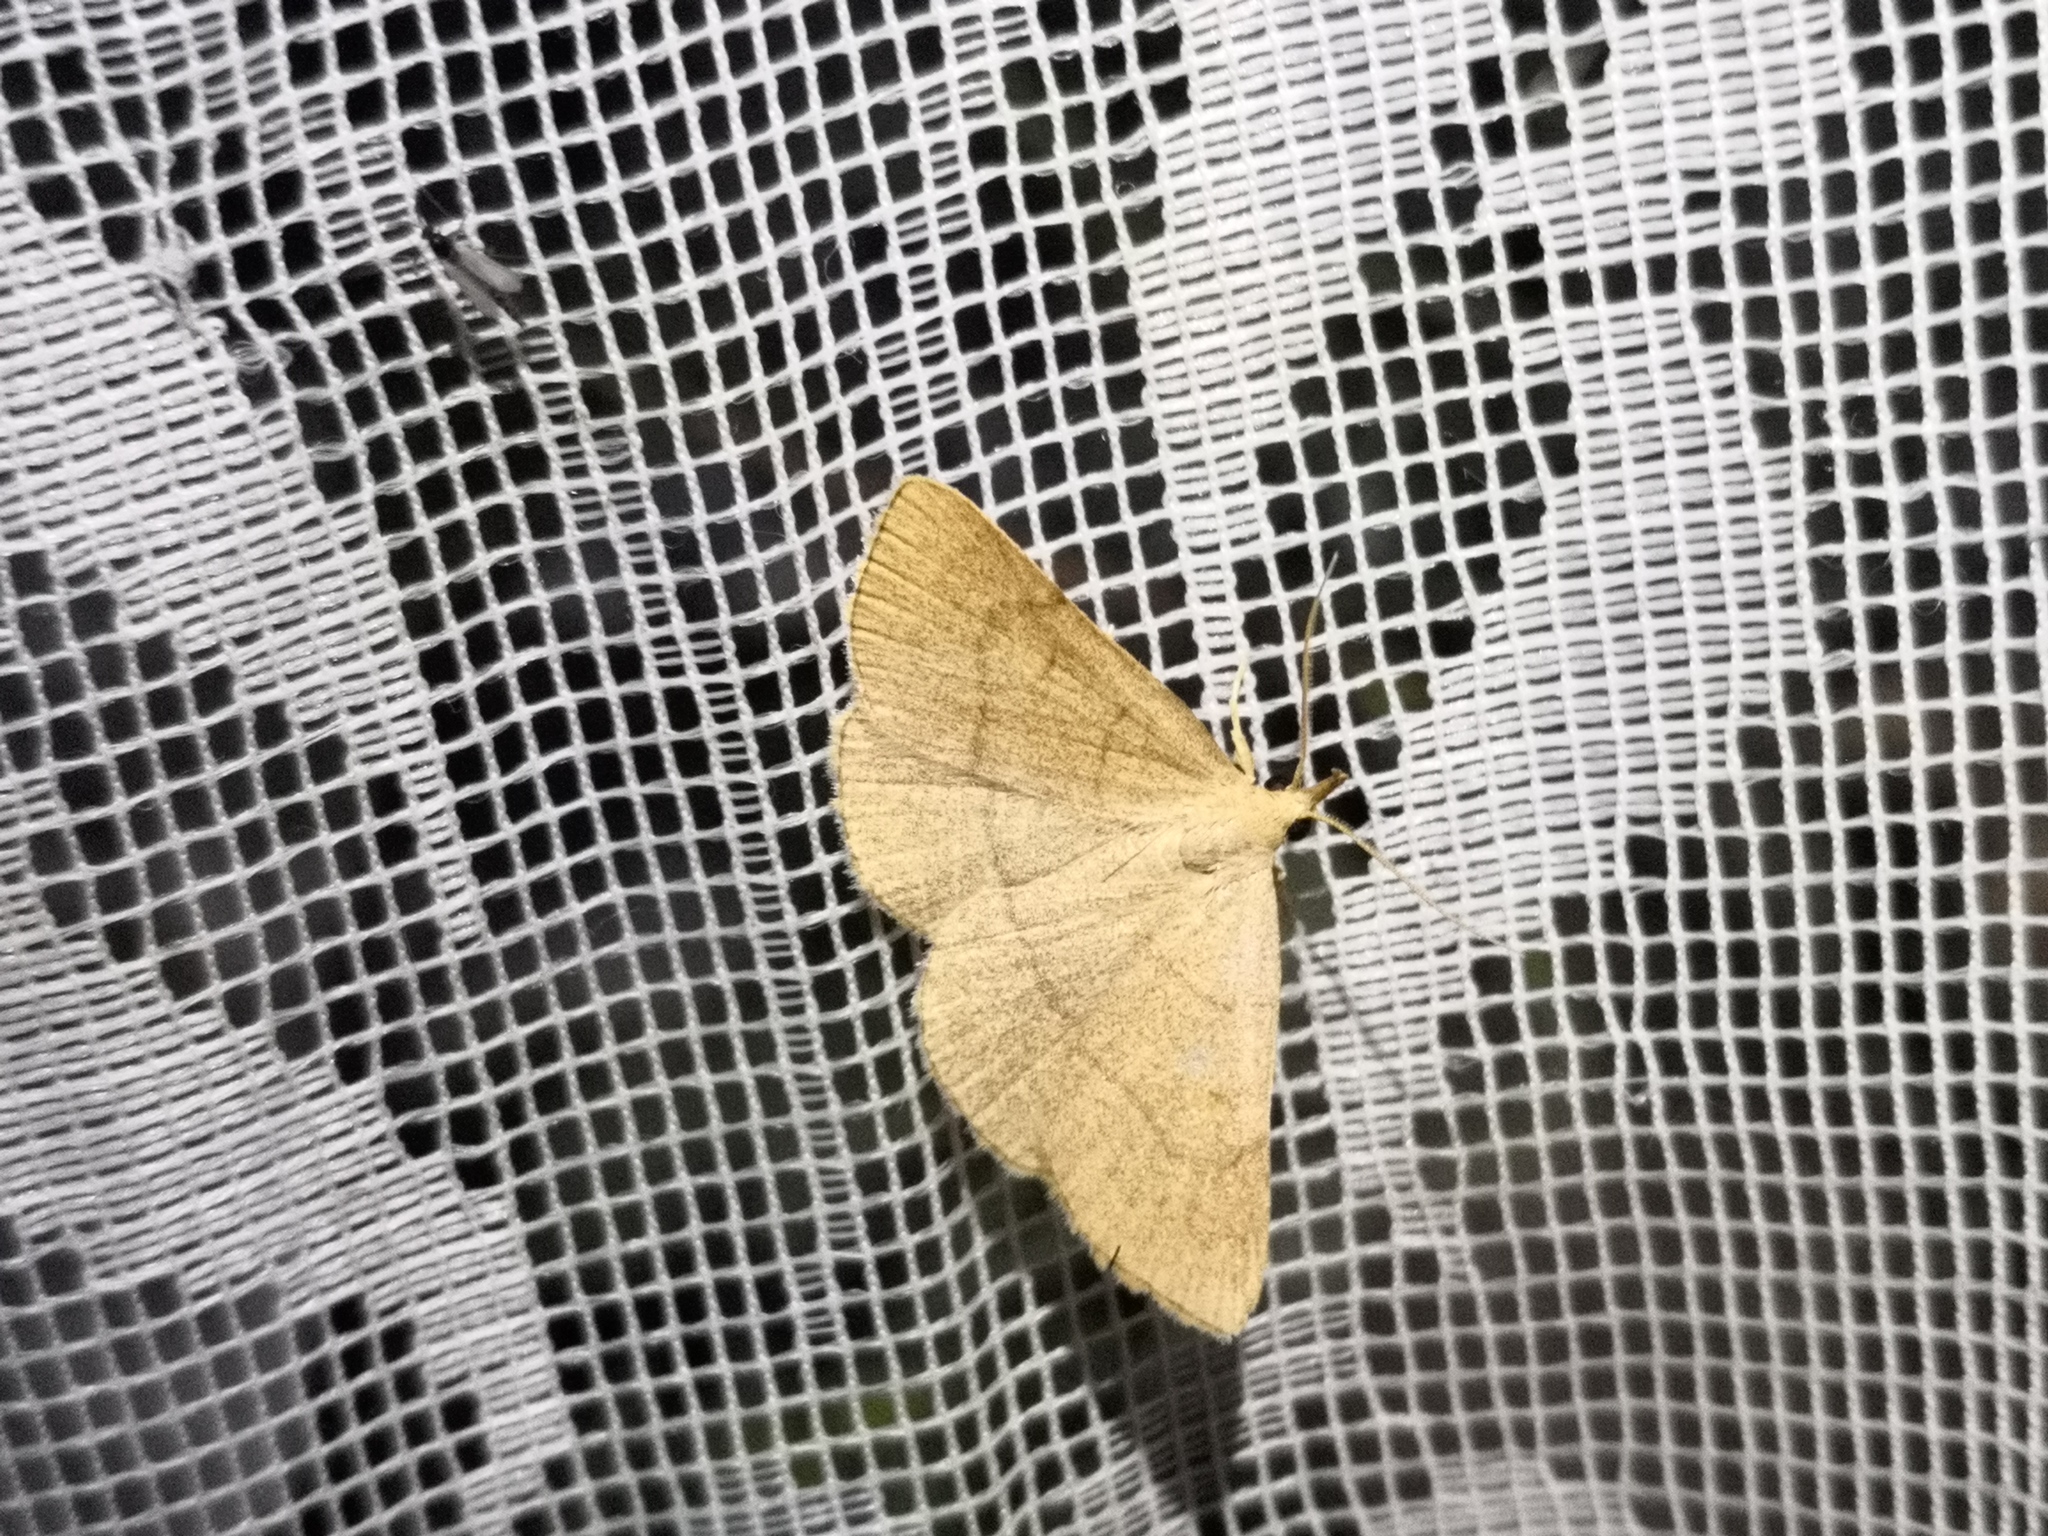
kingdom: Animalia
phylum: Arthropoda
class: Insecta
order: Lepidoptera
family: Erebidae
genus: Paracolax
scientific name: Paracolax tristalis
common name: Clay fan-foot
